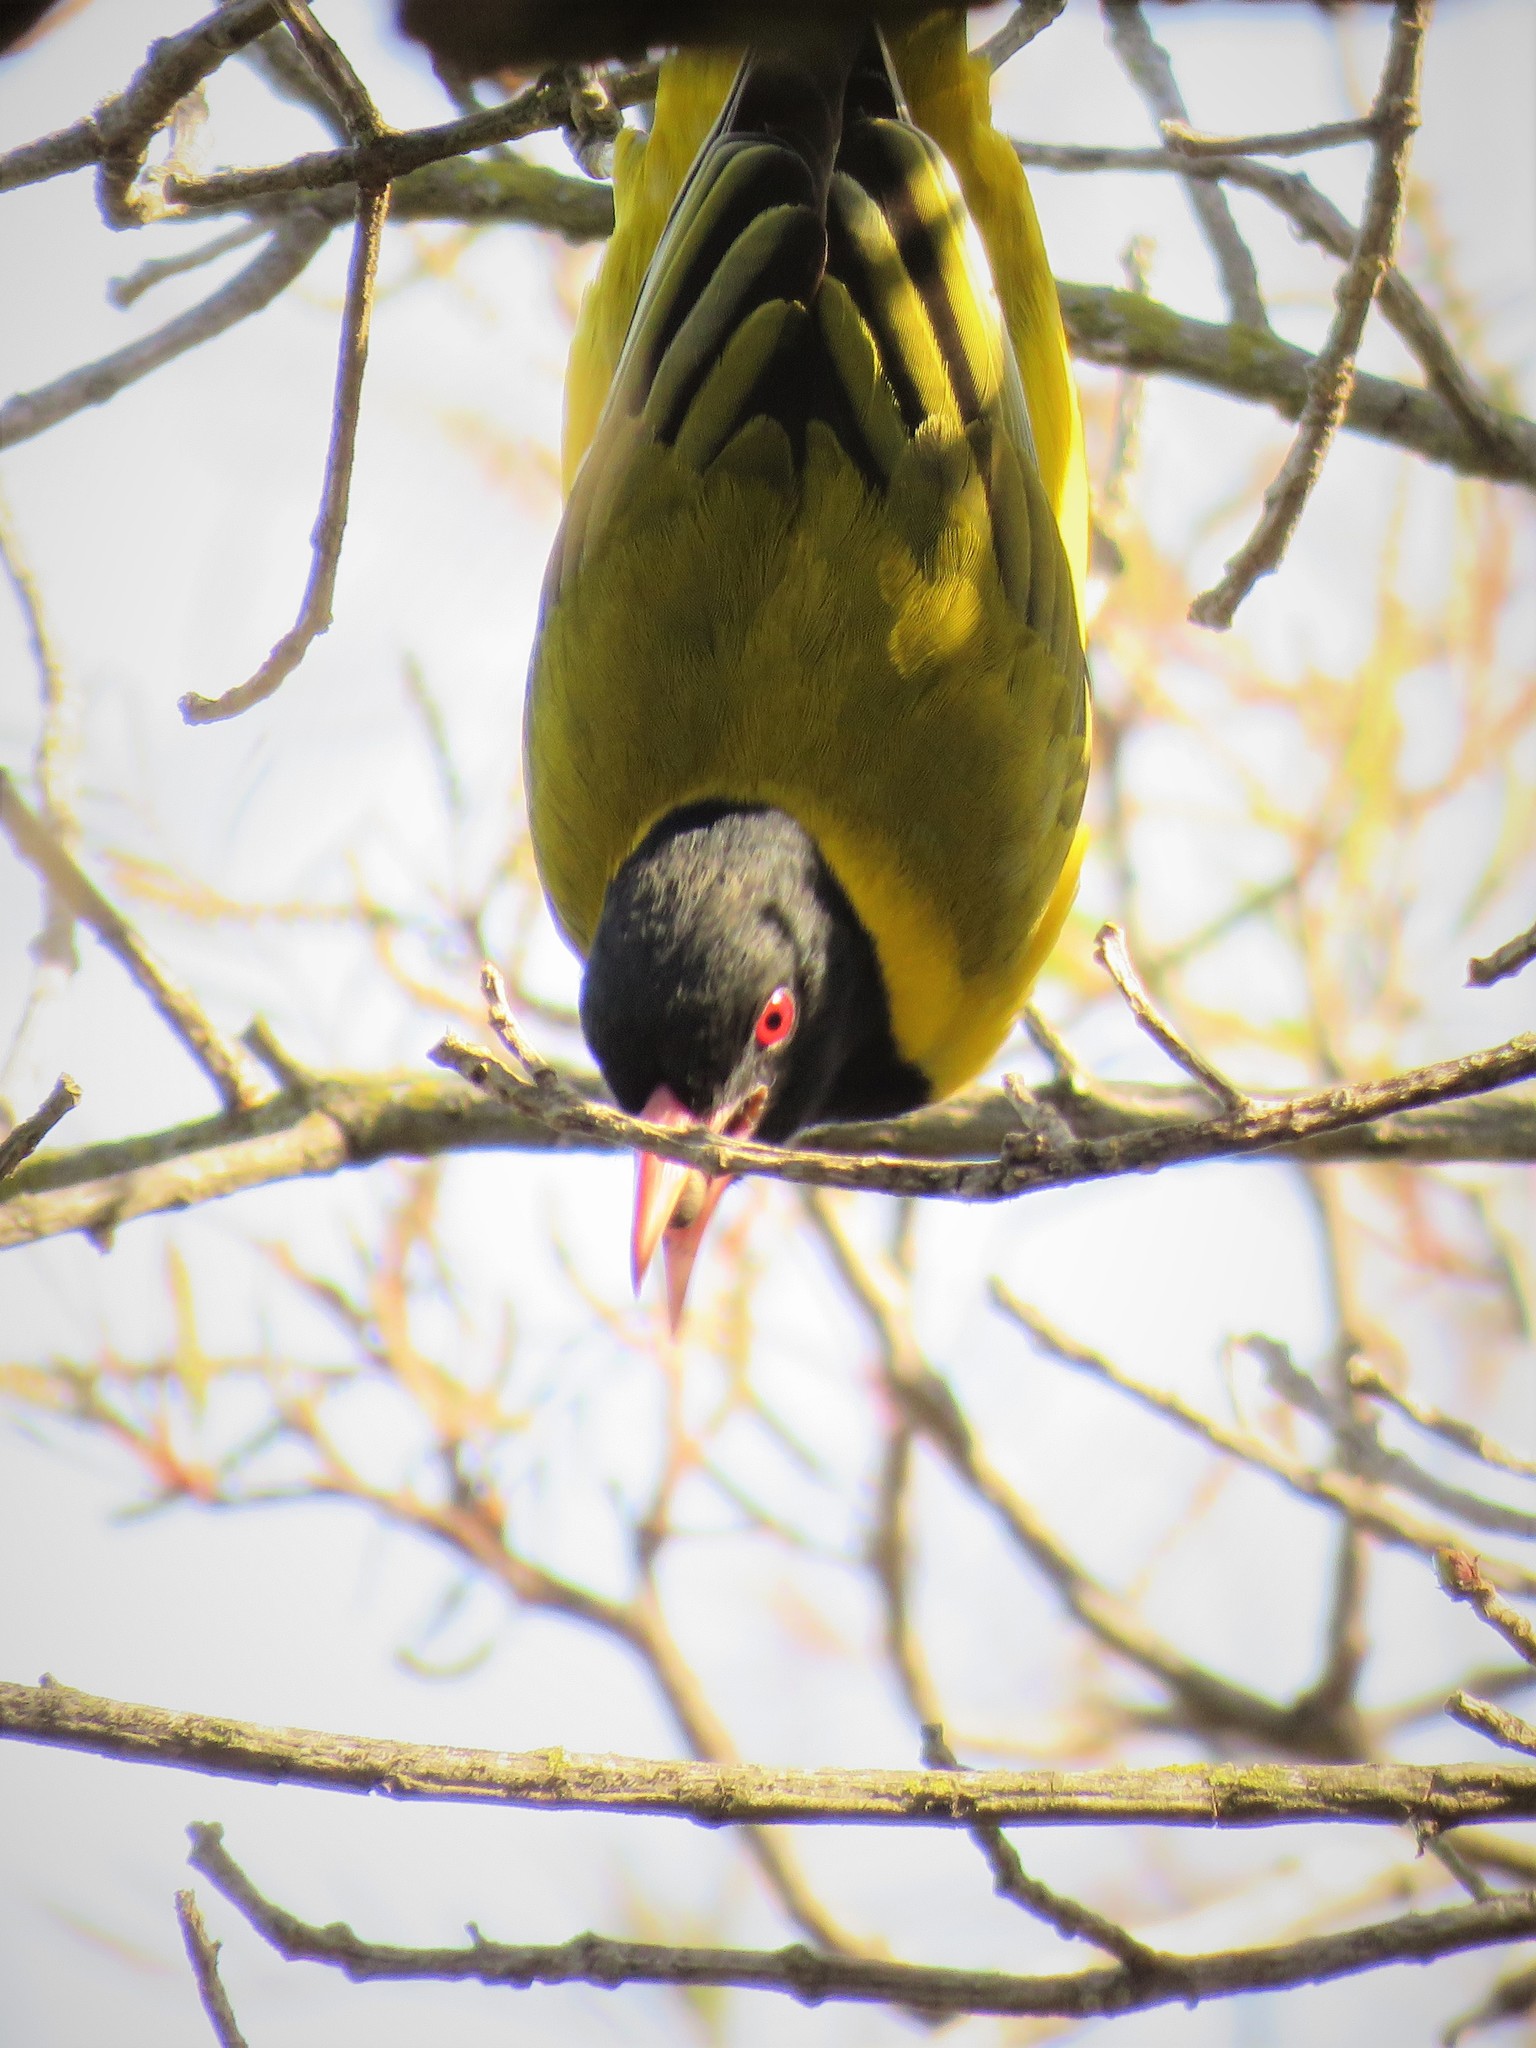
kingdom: Animalia
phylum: Chordata
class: Aves
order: Passeriformes
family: Oriolidae
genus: Oriolus
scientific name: Oriolus larvatus
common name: Black-headed oriole
